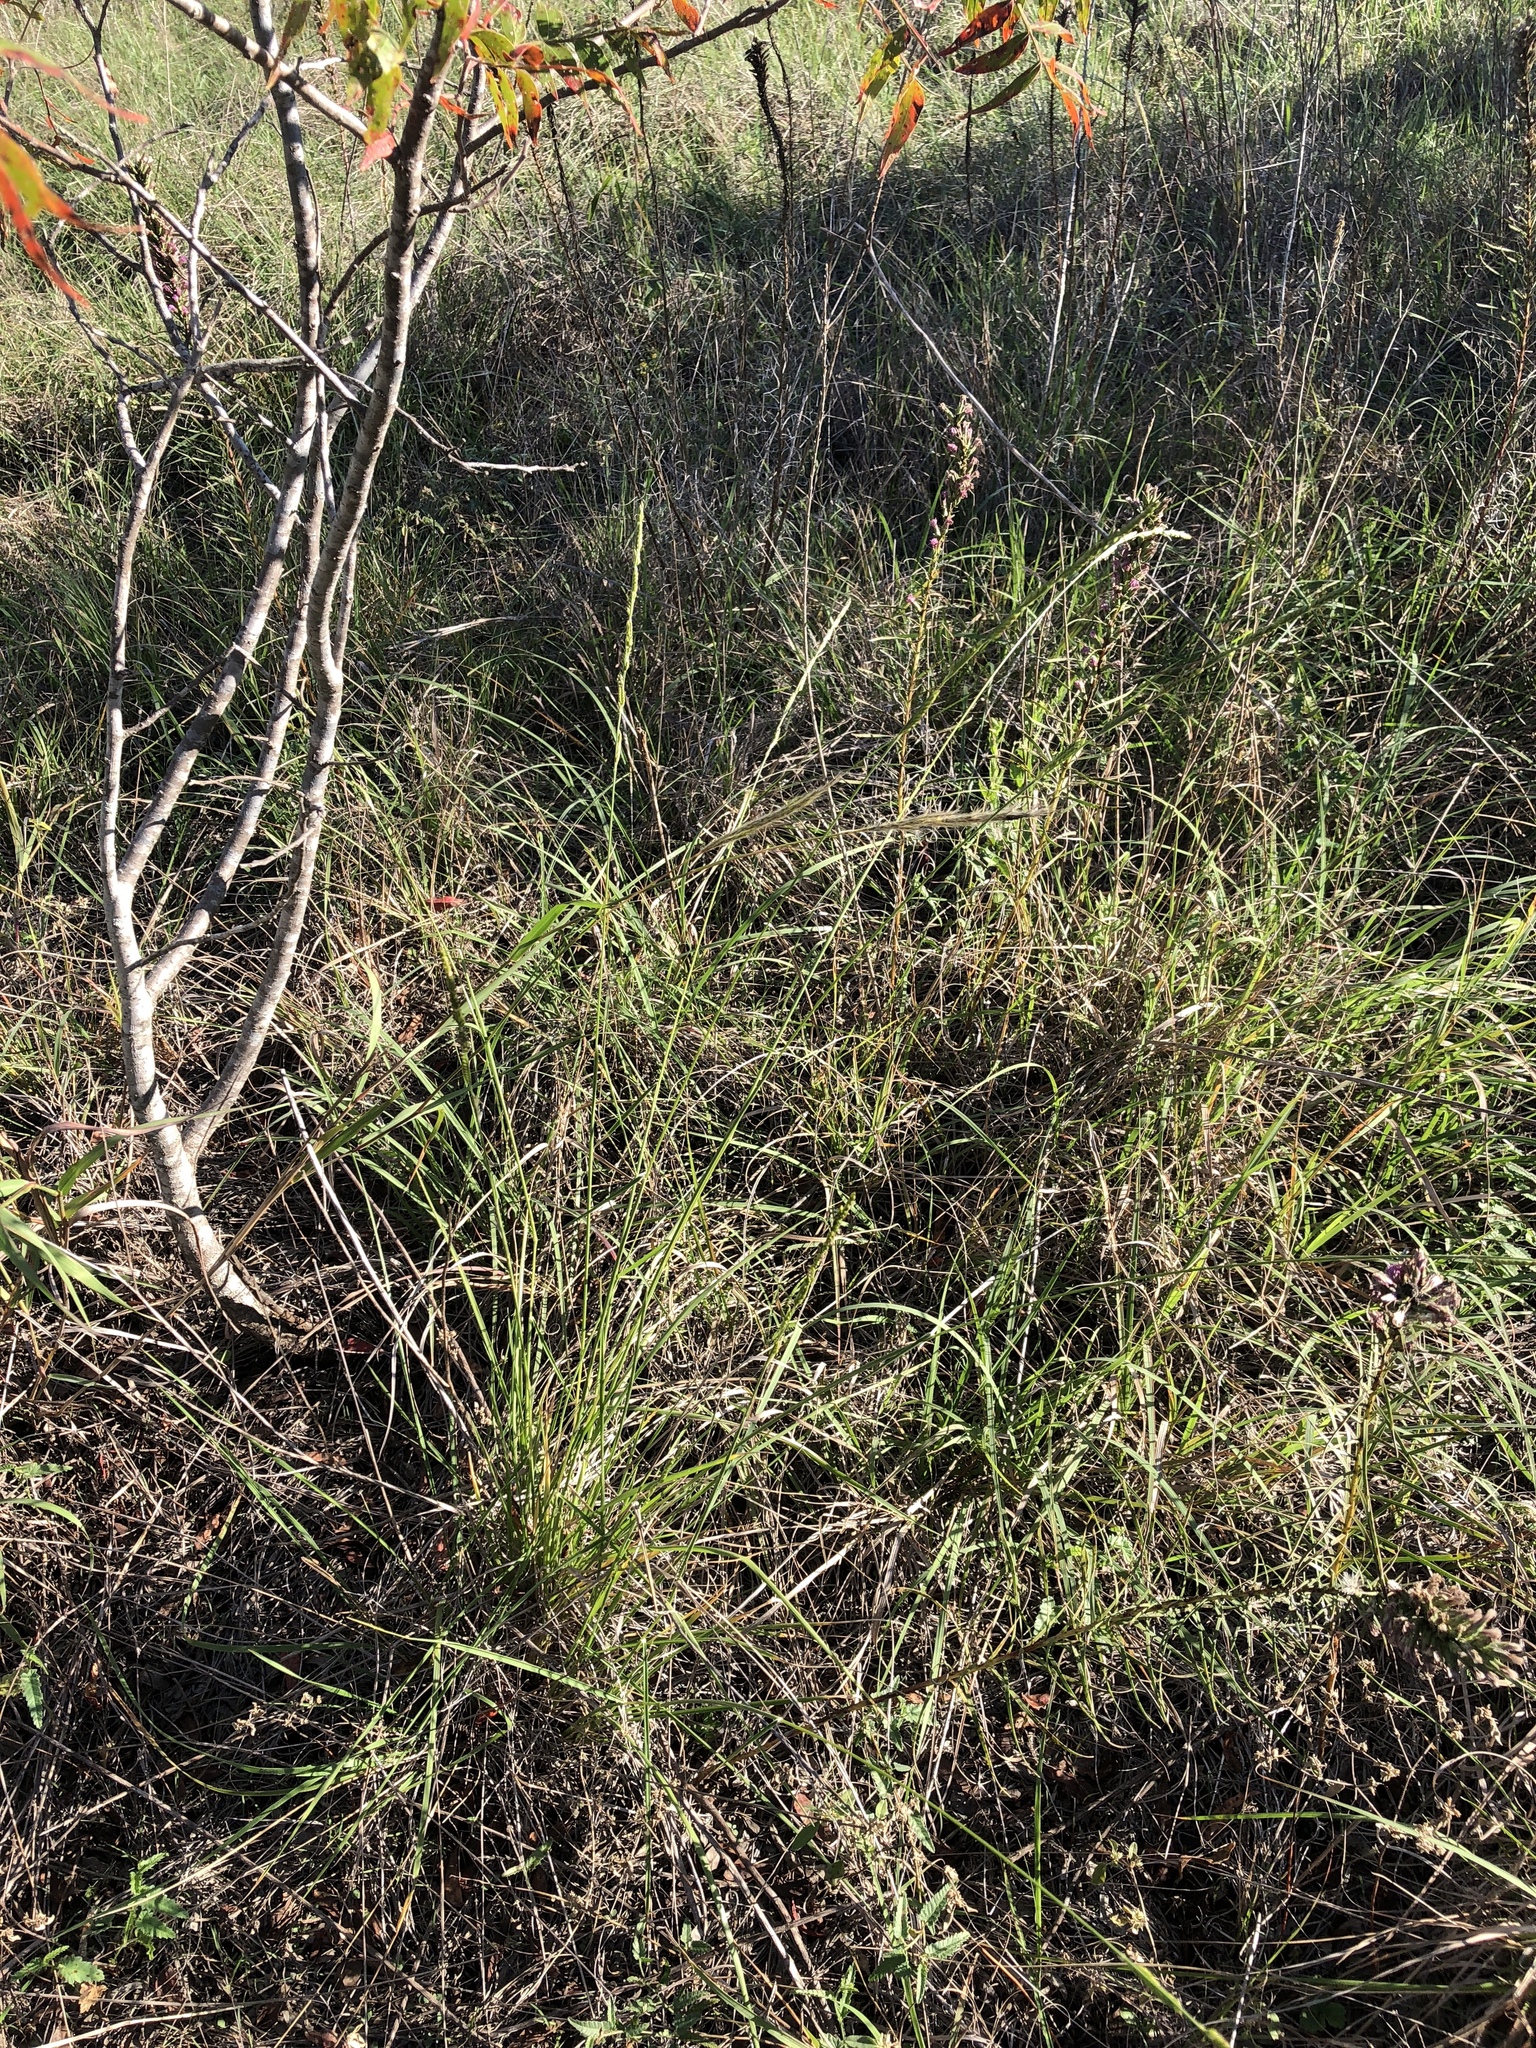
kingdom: Plantae
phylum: Tracheophyta
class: Liliopsida
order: Poales
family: Poaceae
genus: Eriochloa
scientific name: Eriochloa sericea
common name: Texas cup grass
